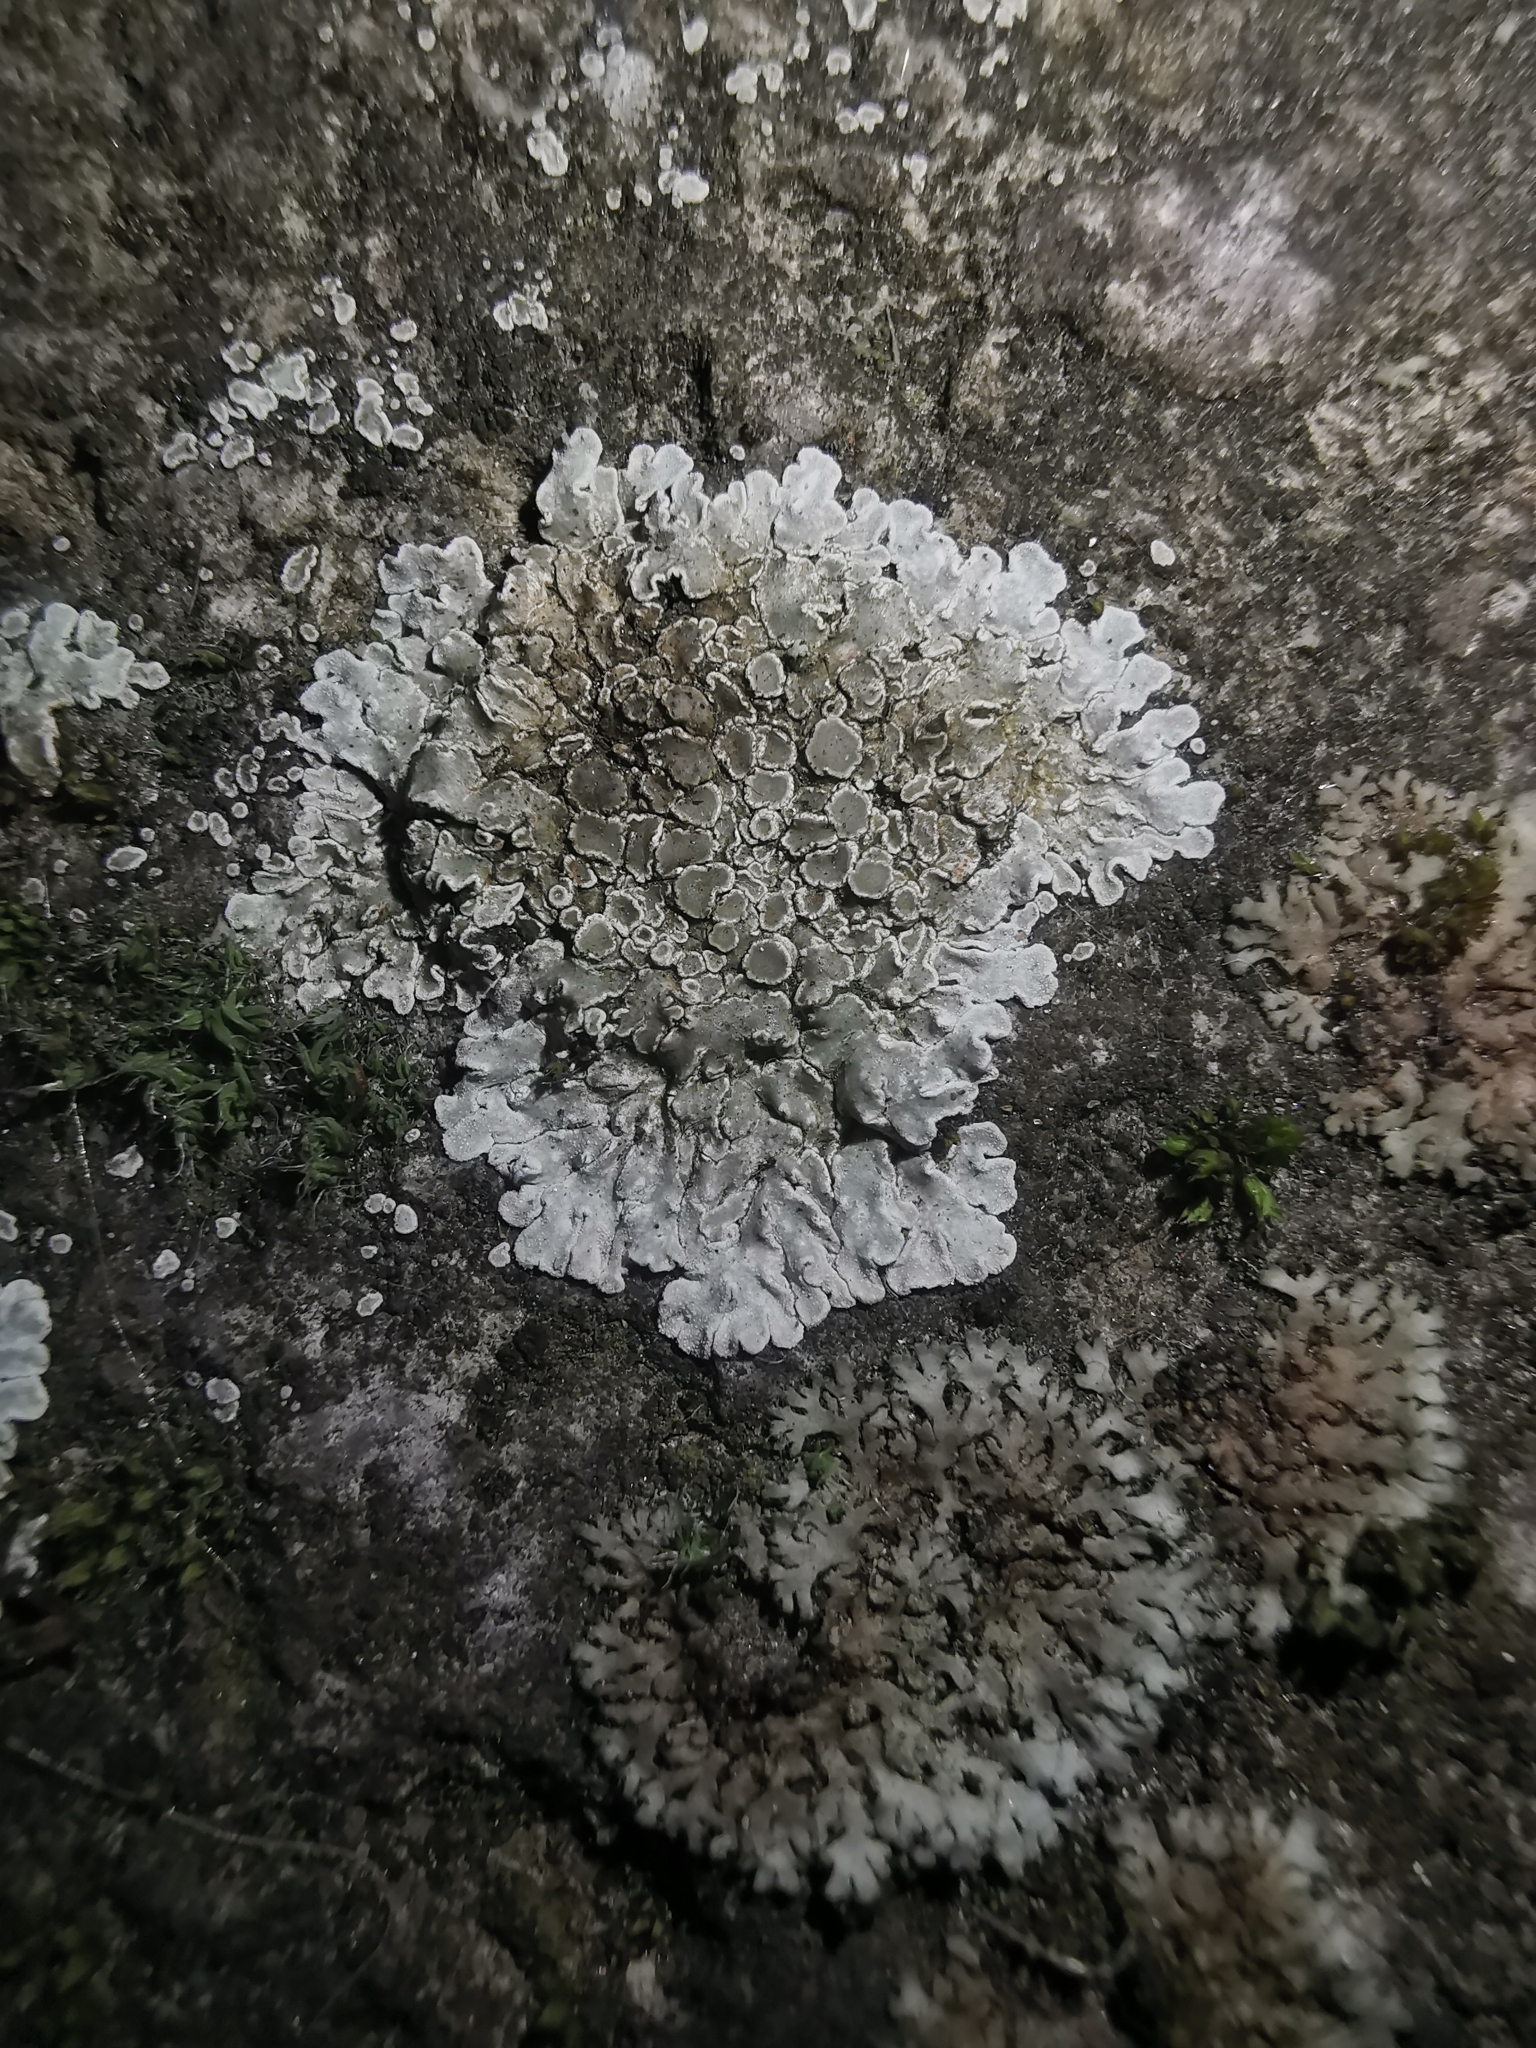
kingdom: Fungi
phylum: Ascomycota
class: Lecanoromycetes
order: Lecanorales
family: Lecanoraceae
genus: Protoparmeliopsis
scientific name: Protoparmeliopsis muralis
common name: Stonewall rim lichen
